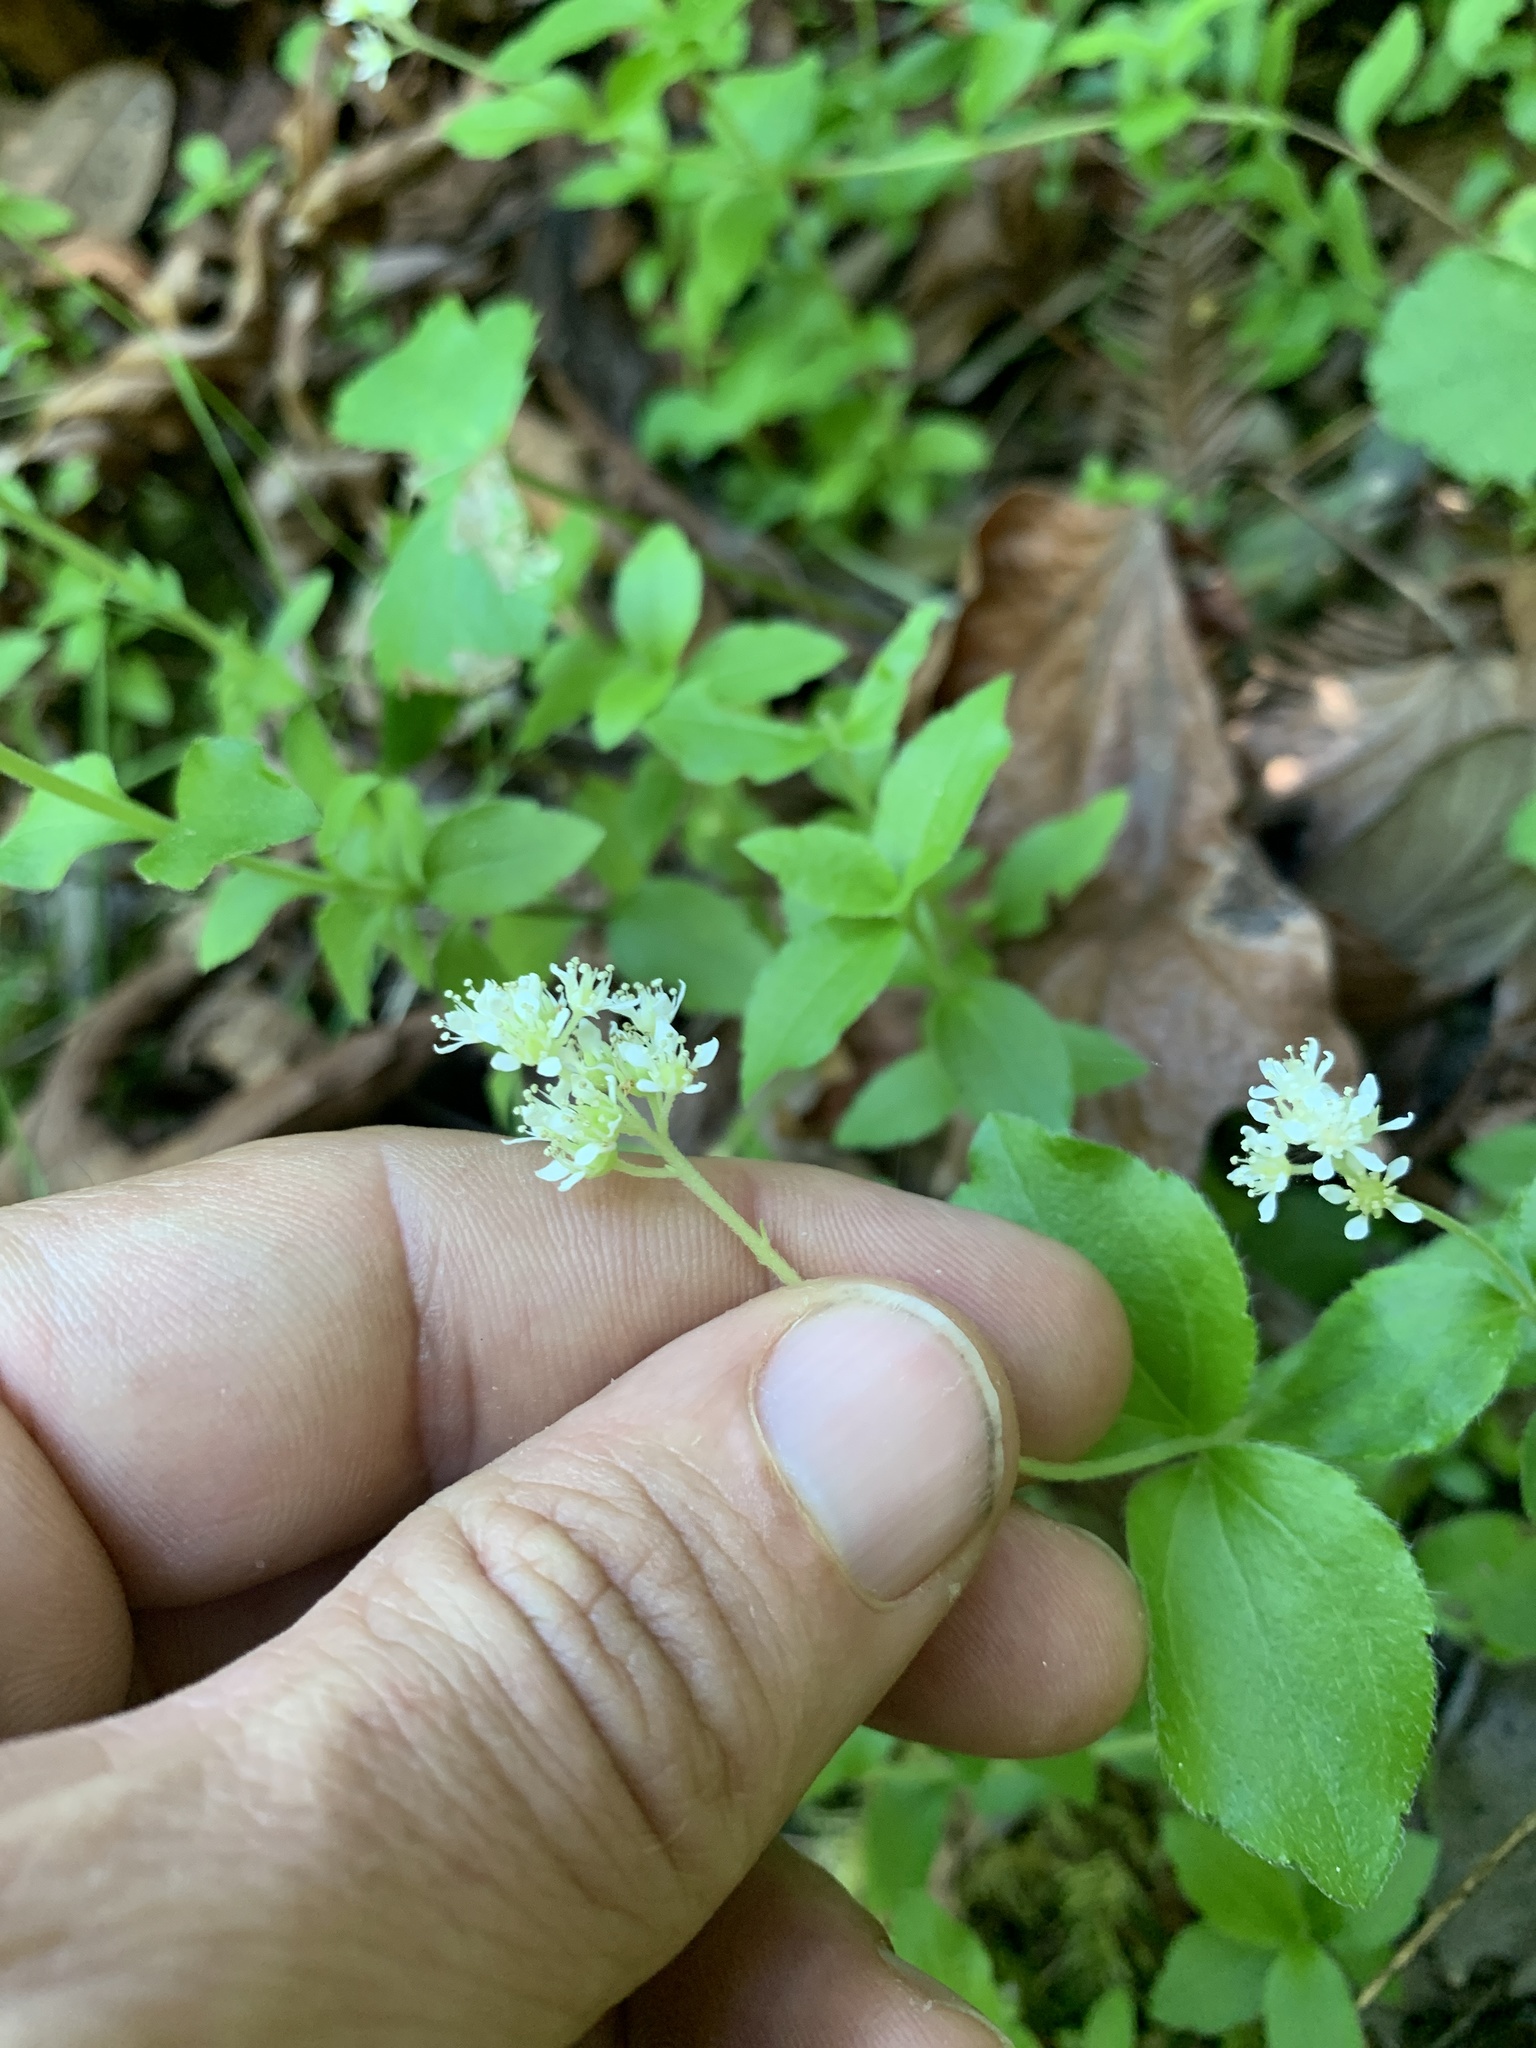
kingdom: Plantae
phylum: Tracheophyta
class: Magnoliopsida
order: Cornales
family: Hydrangeaceae
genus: Whipplea
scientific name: Whipplea modesta
